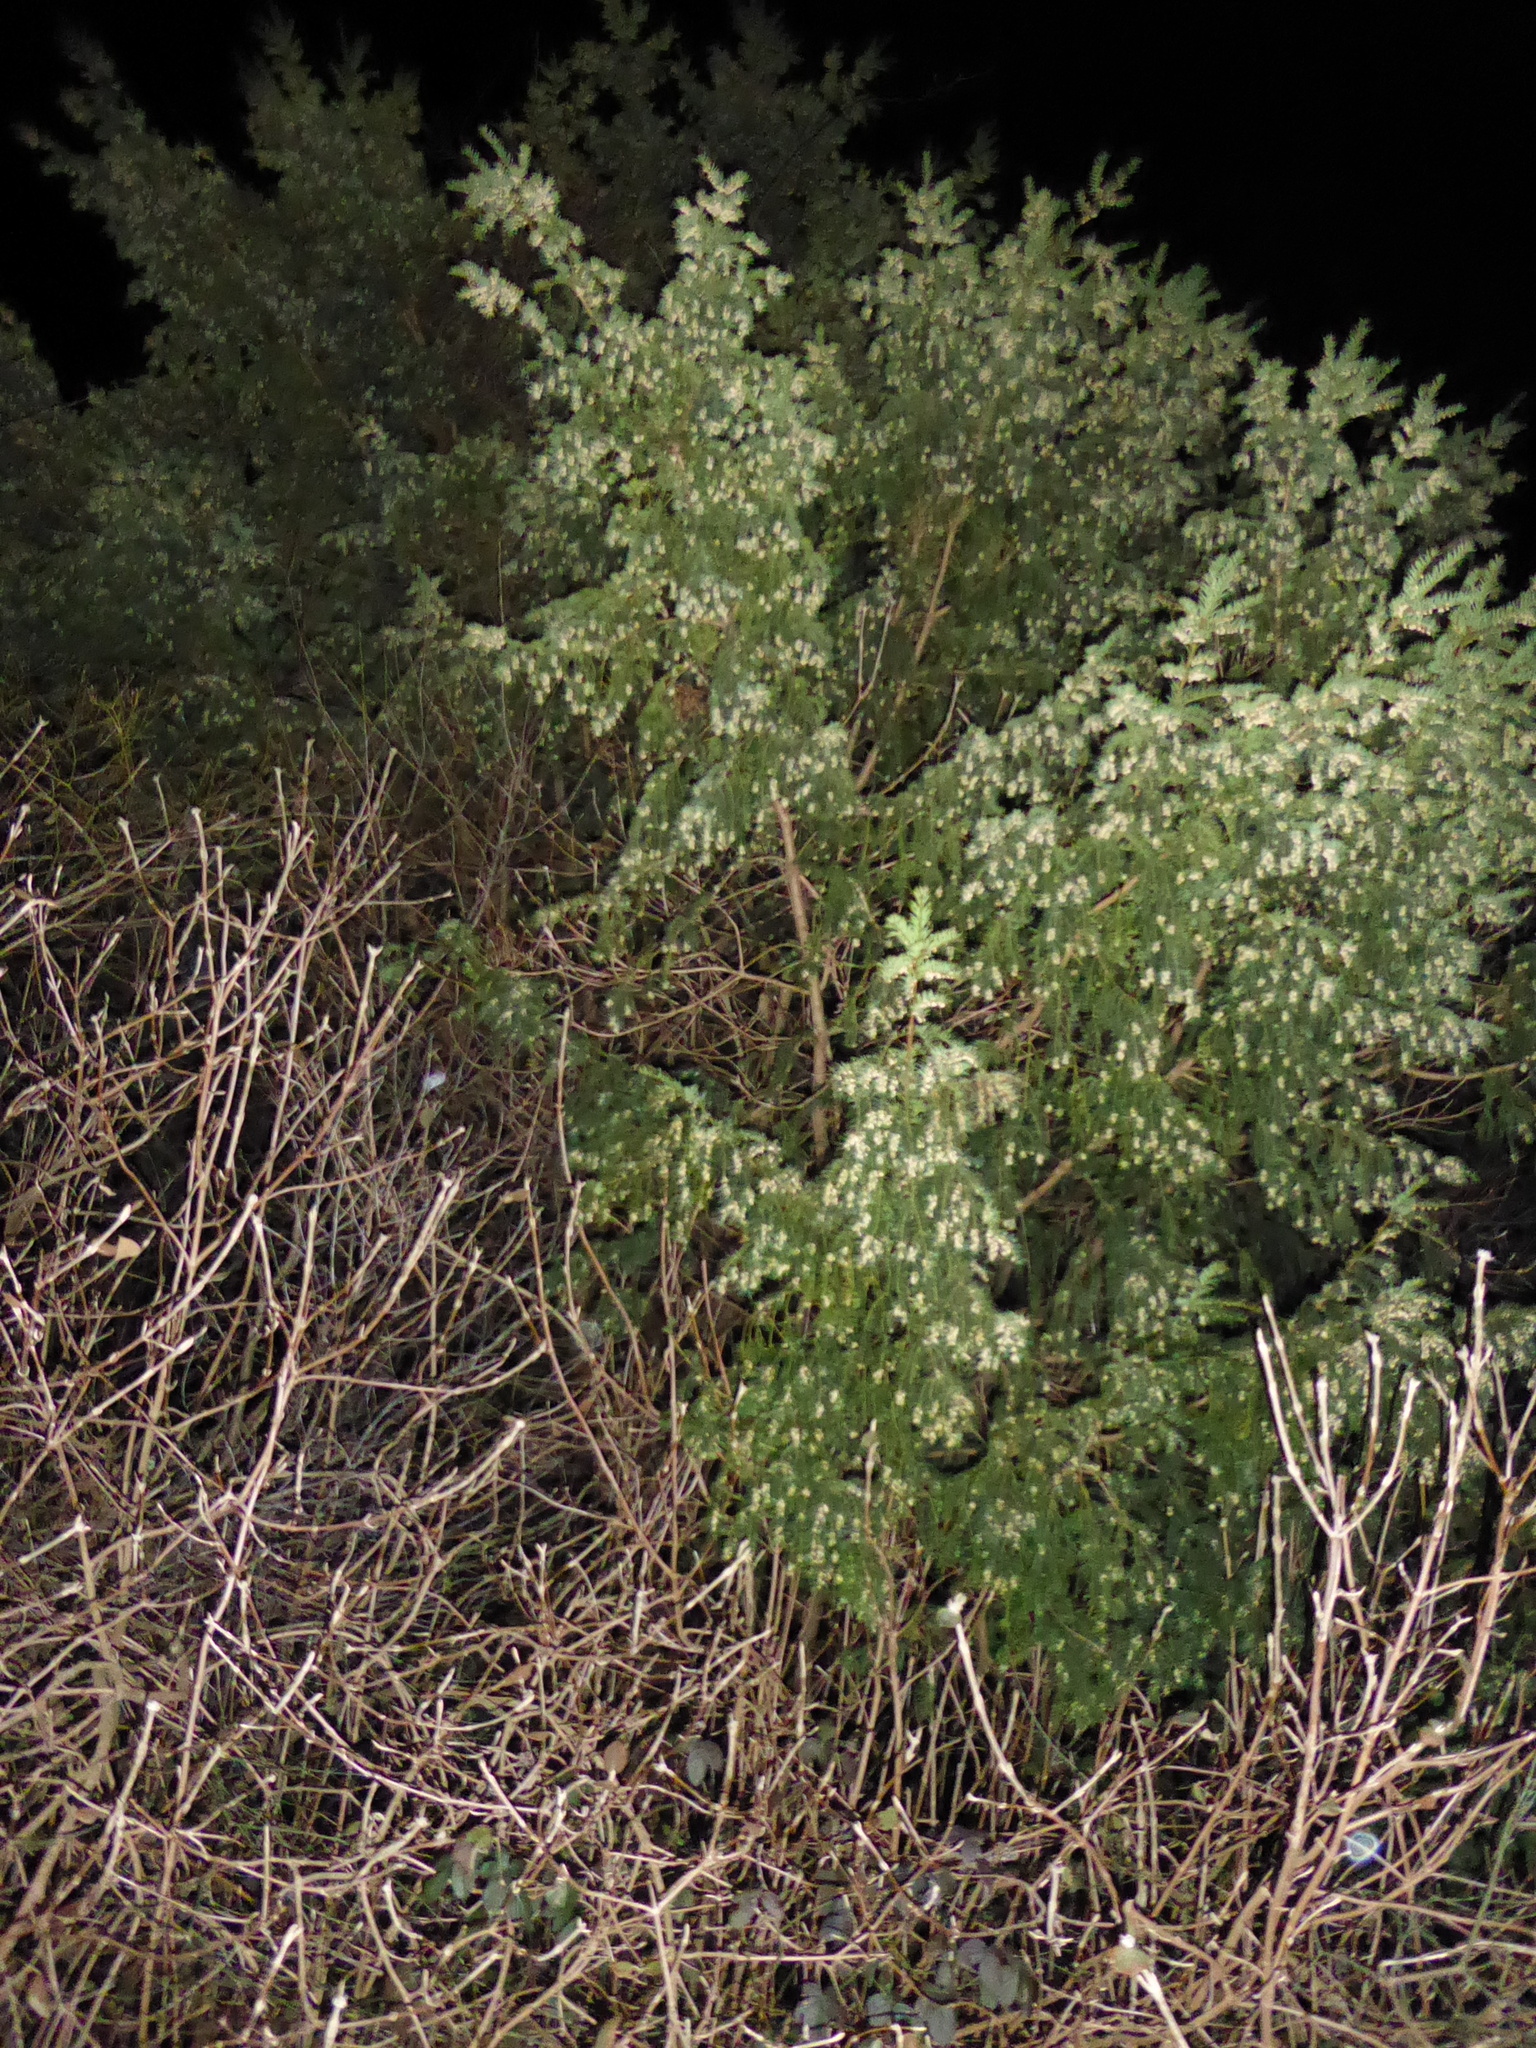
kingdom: Plantae
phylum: Tracheophyta
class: Pinopsida
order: Pinales
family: Taxaceae
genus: Taxus
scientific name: Taxus baccata
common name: Yew
